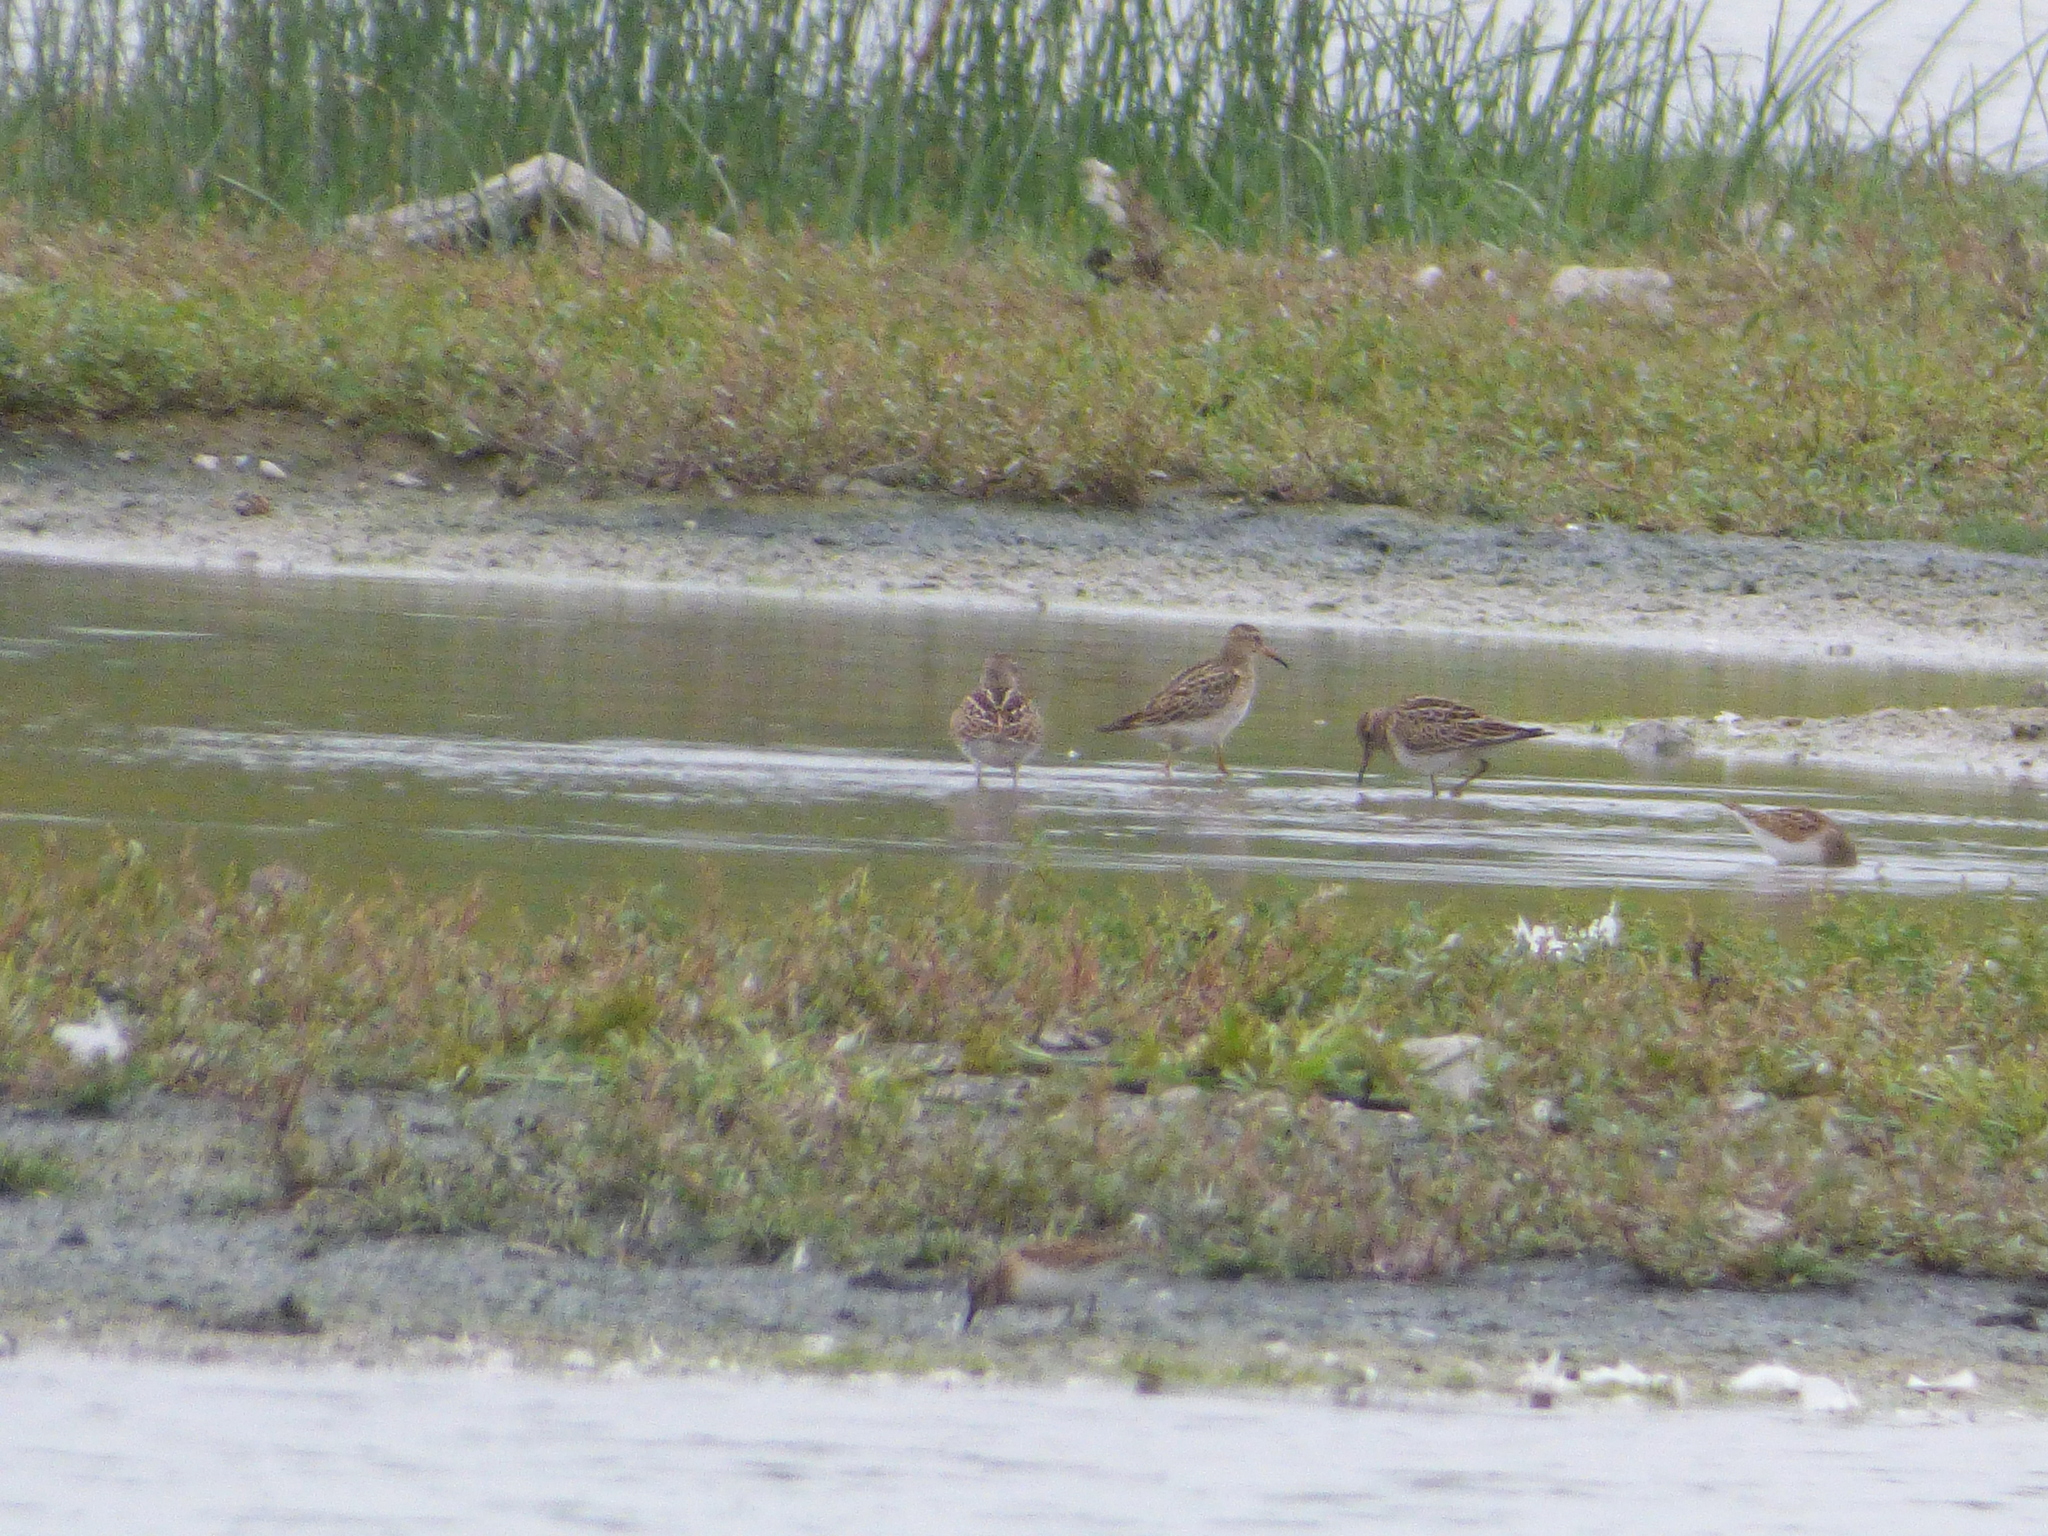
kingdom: Animalia
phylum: Chordata
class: Aves
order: Charadriiformes
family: Scolopacidae
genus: Calidris
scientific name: Calidris melanotos
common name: Pectoral sandpiper
